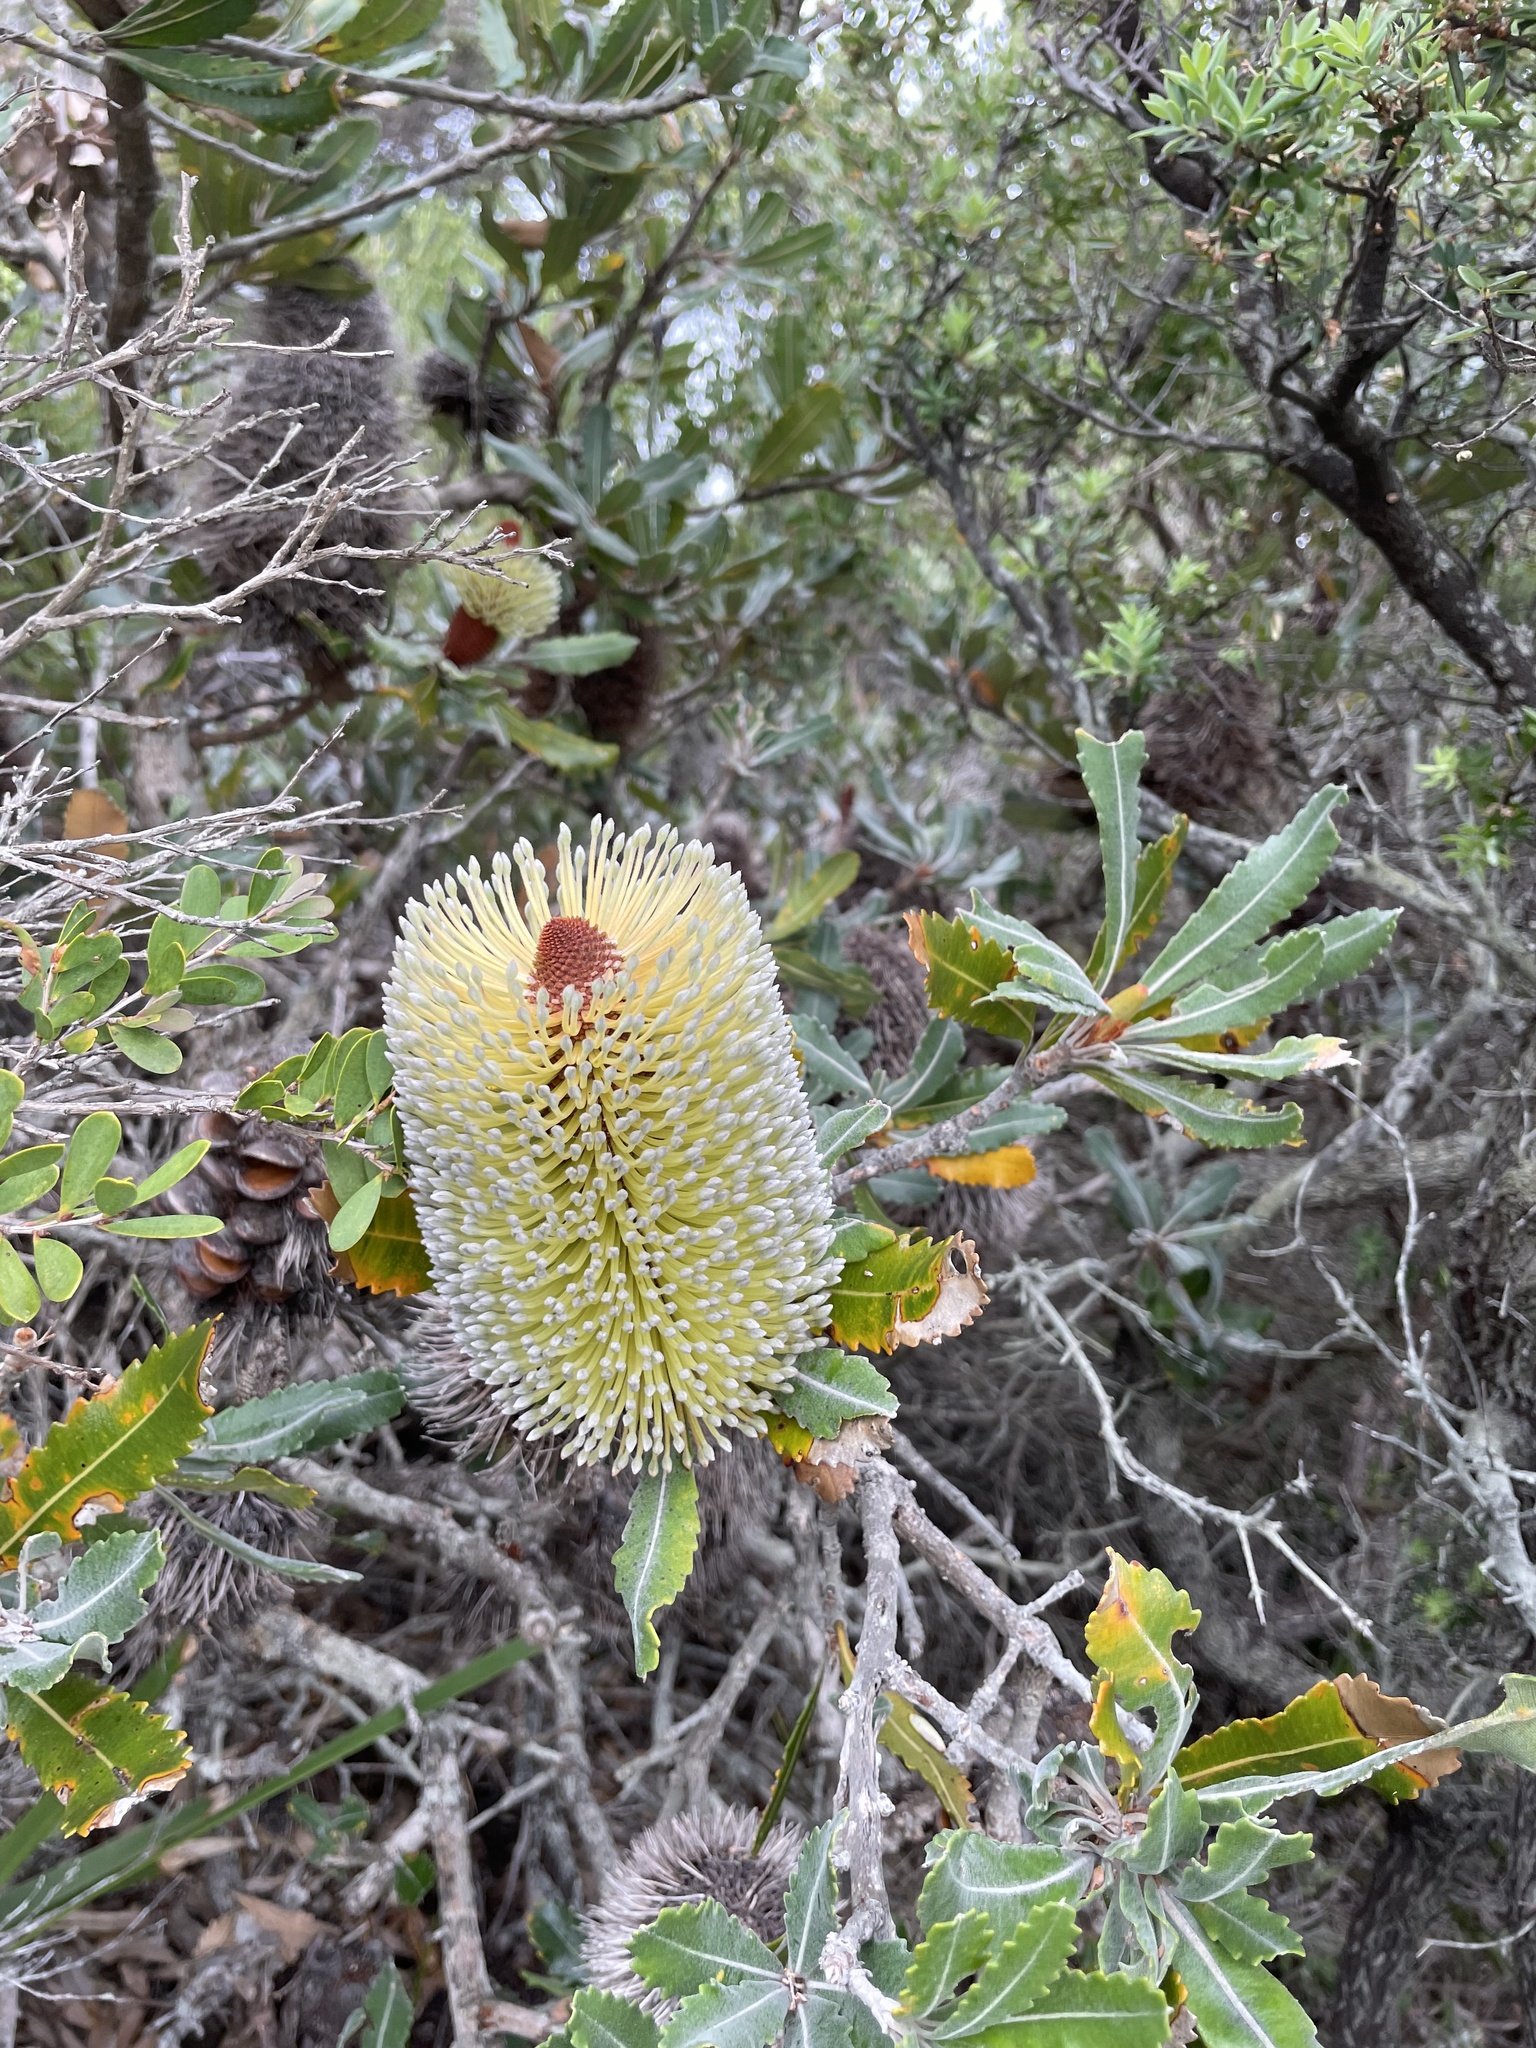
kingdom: Plantae
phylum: Tracheophyta
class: Magnoliopsida
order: Proteales
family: Proteaceae
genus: Banksia
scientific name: Banksia serrata
